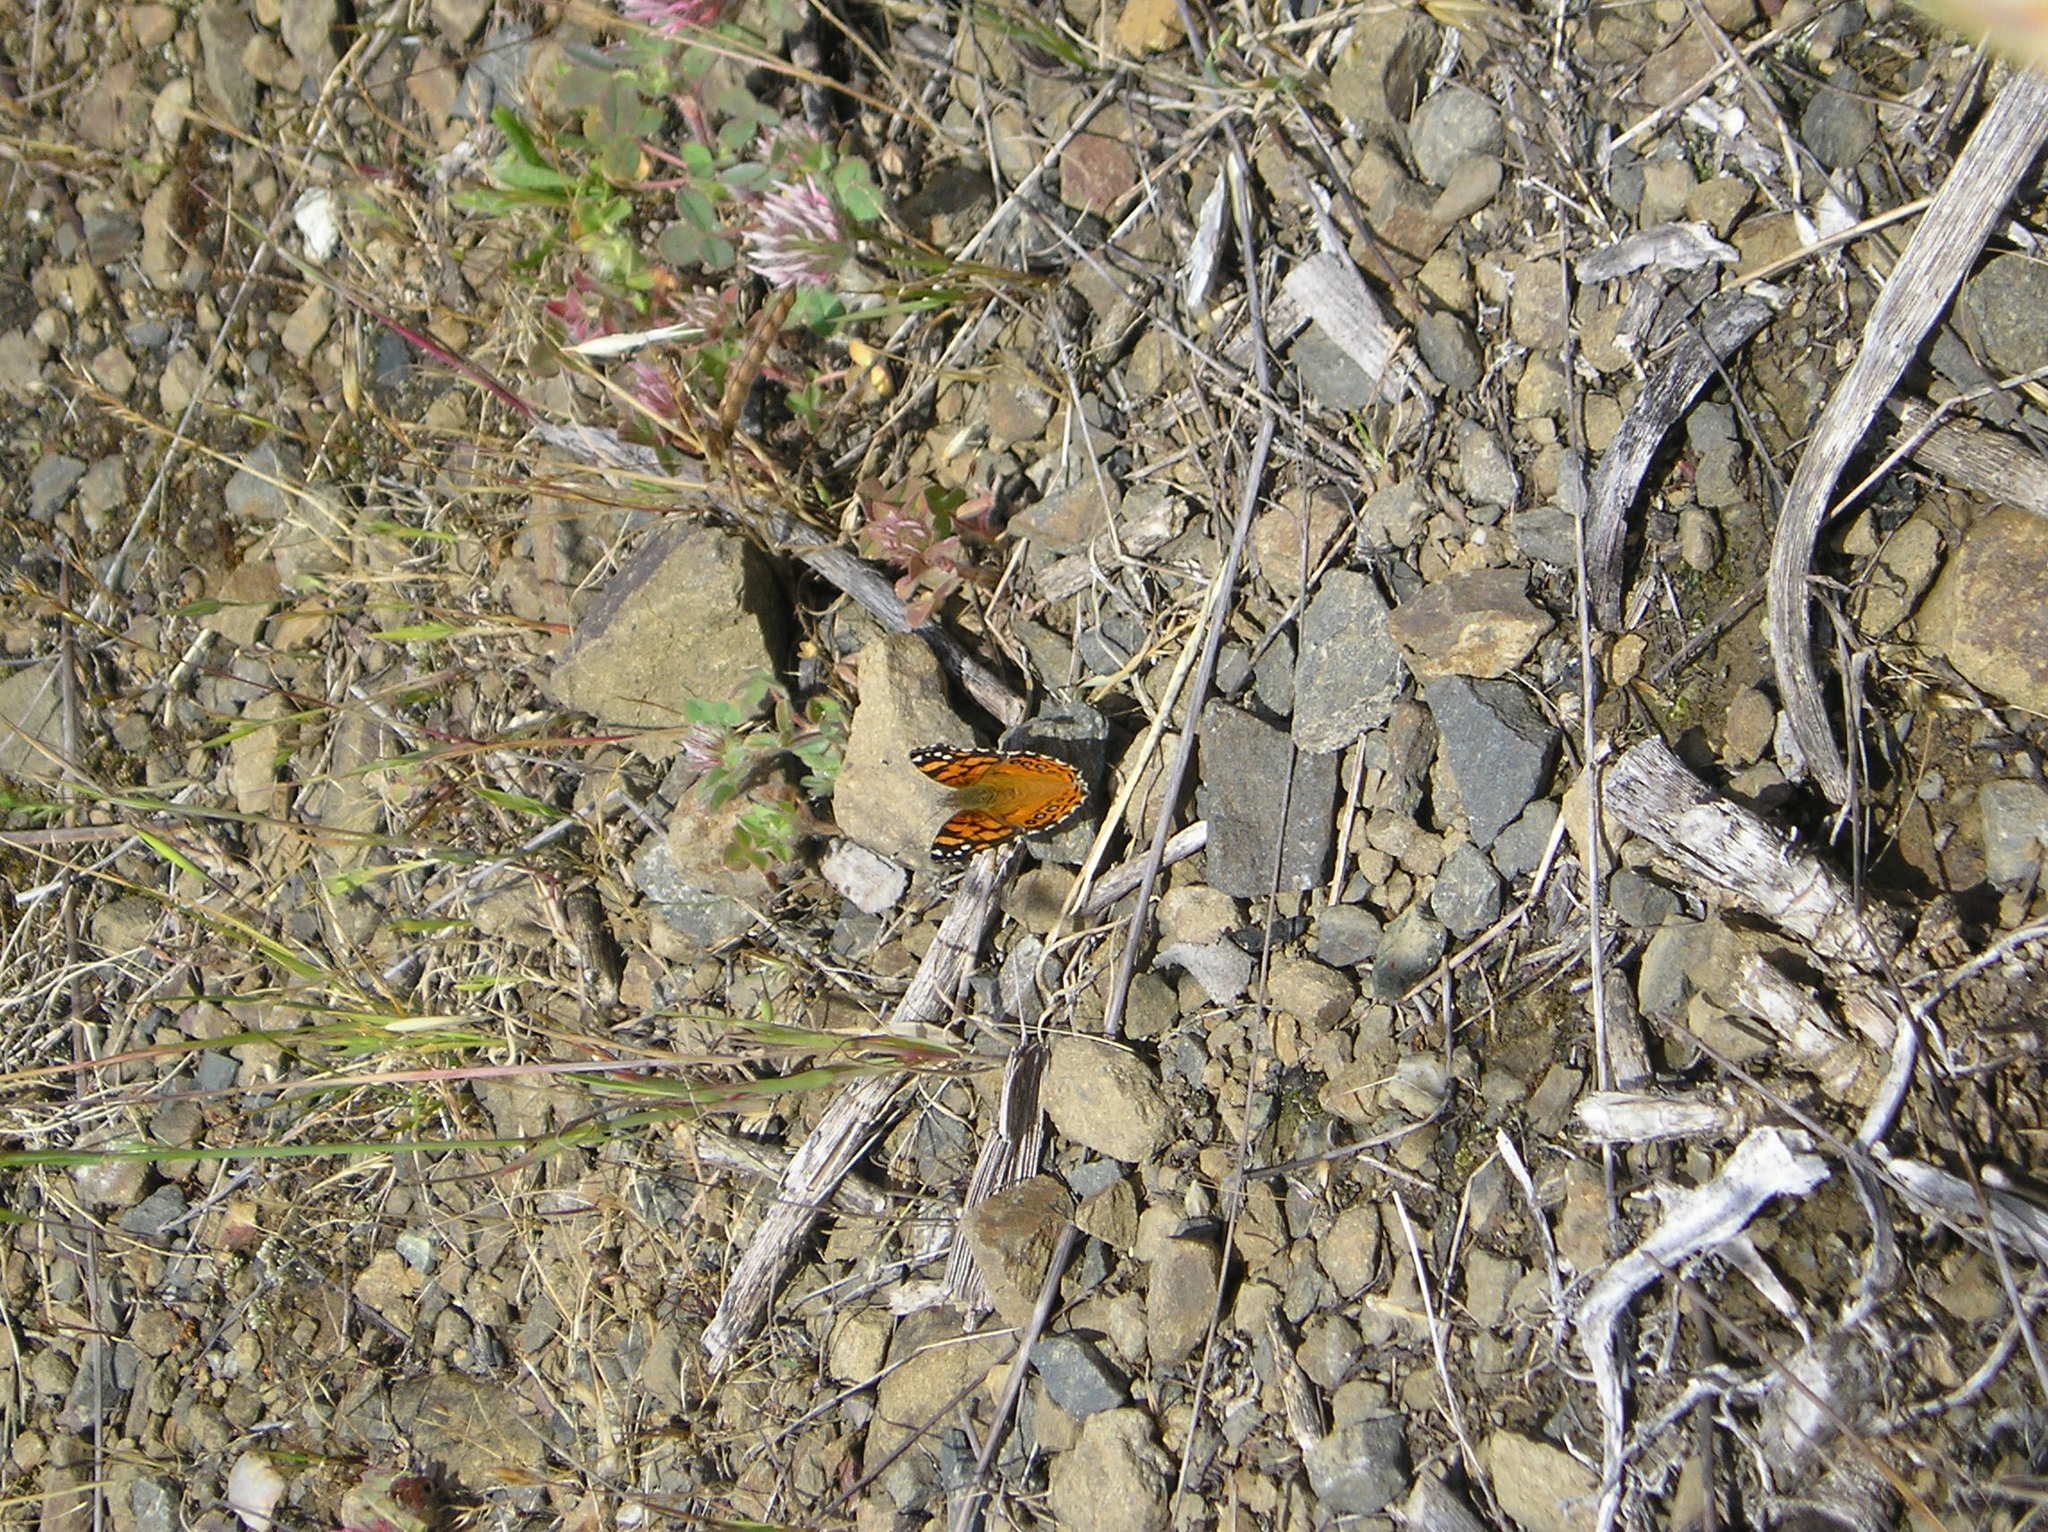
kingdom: Animalia
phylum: Arthropoda
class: Insecta
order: Lepidoptera
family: Nymphalidae
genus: Vanessa
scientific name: Vanessa annabella
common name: West coast lady
